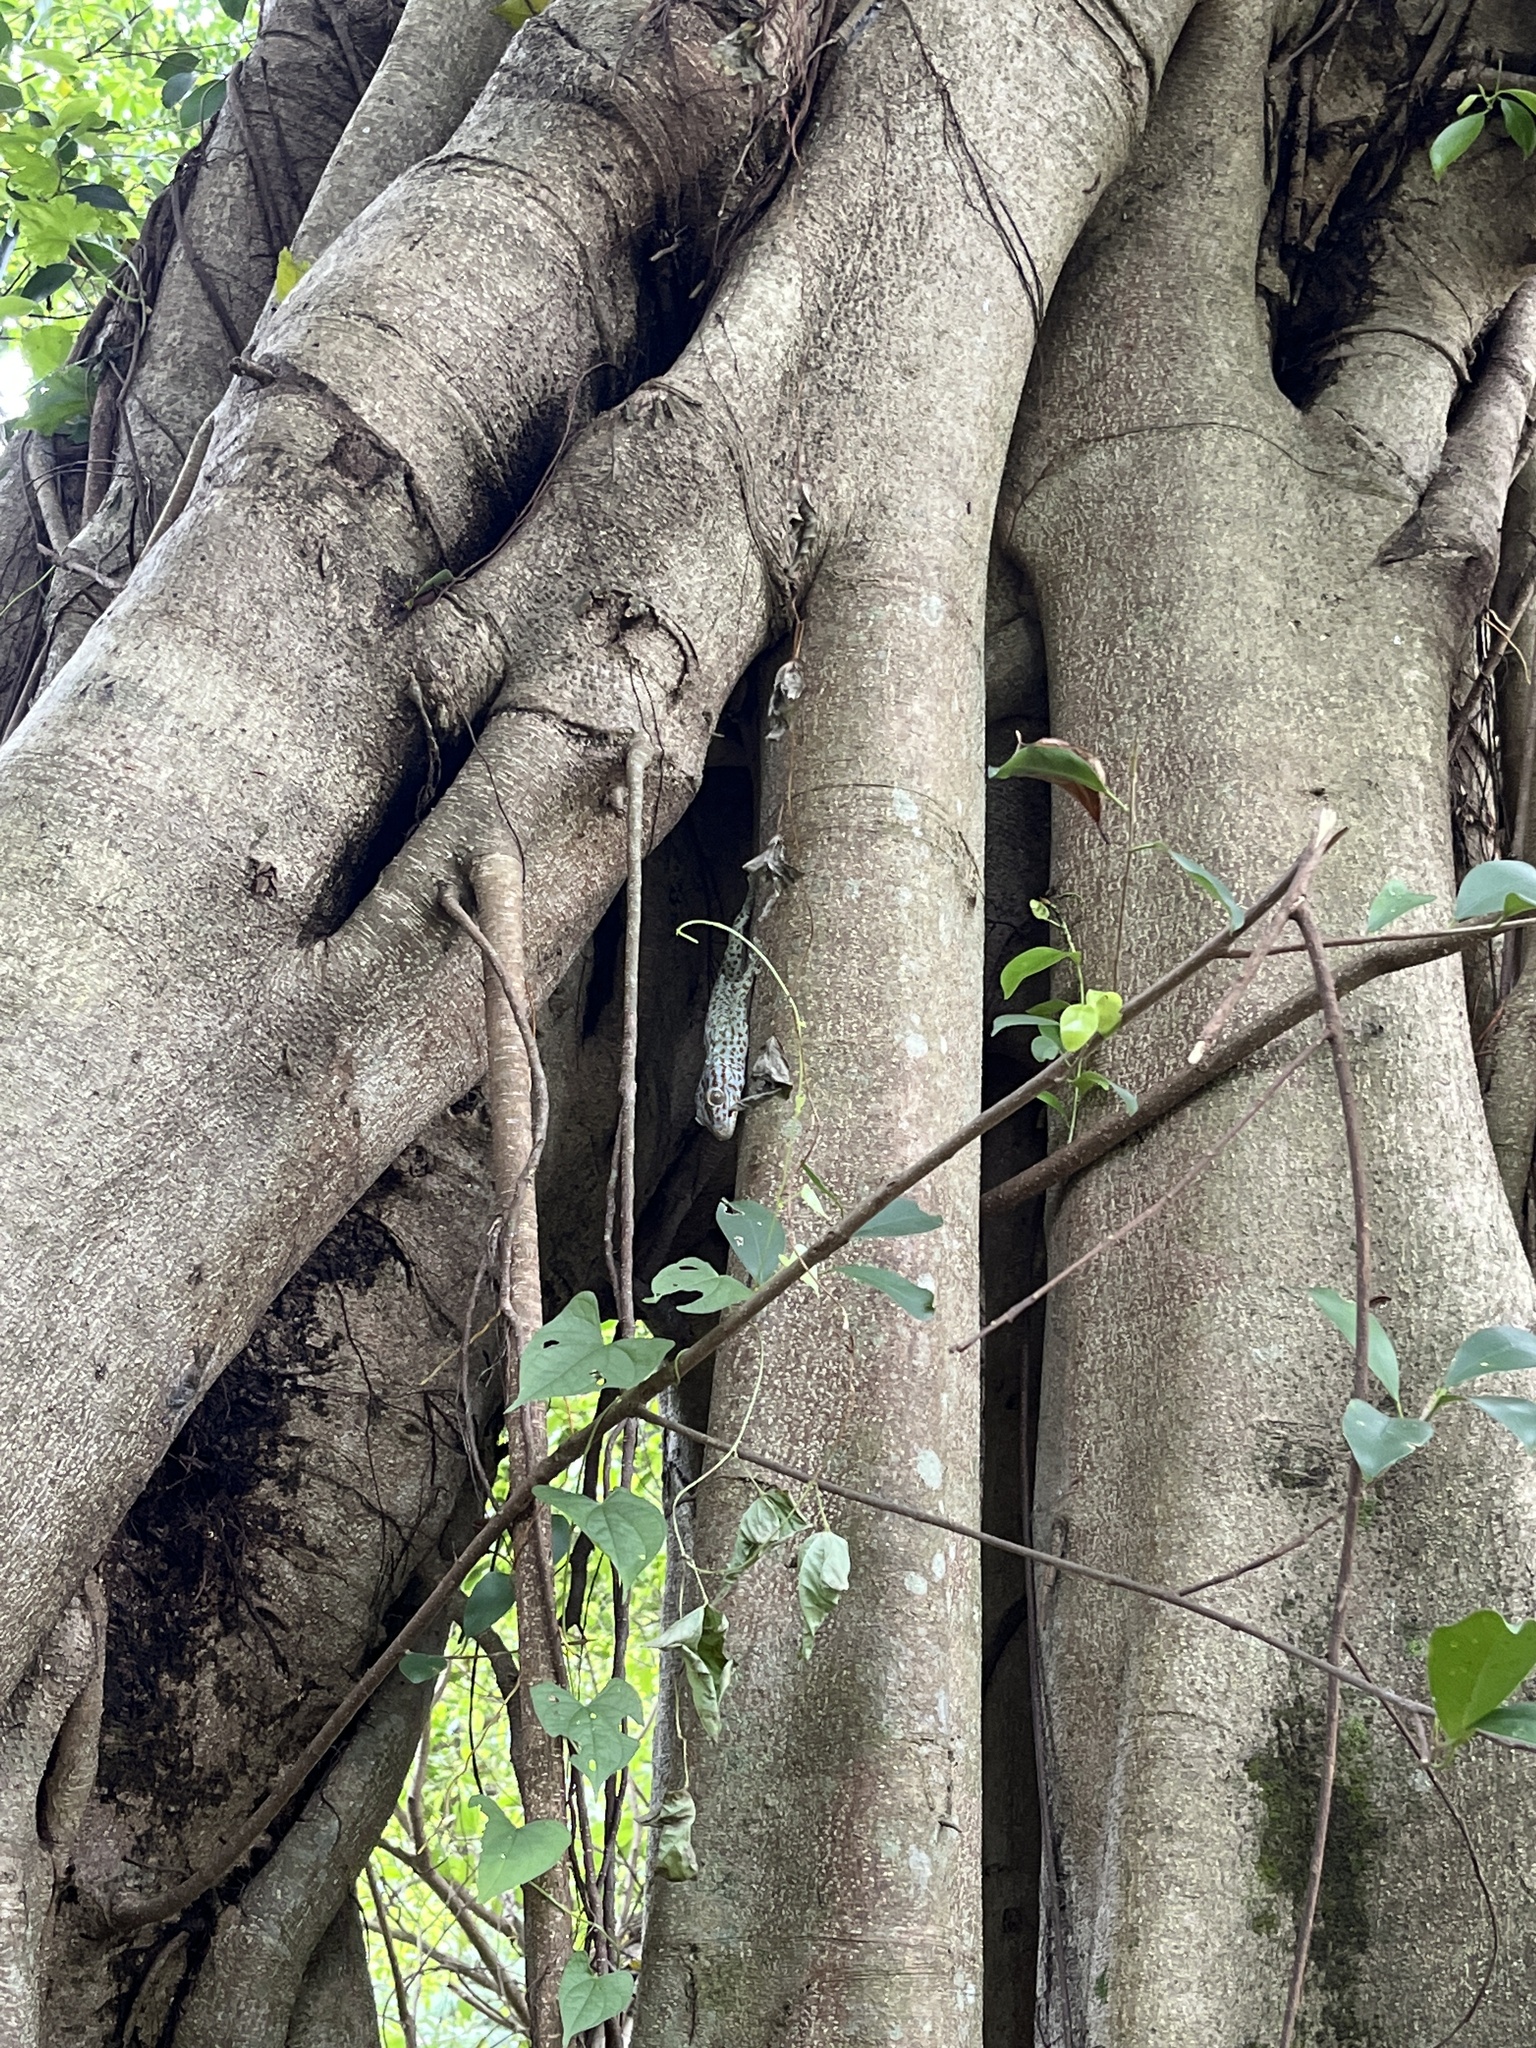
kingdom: Animalia
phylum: Chordata
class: Squamata
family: Gekkonidae
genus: Gekko
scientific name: Gekko gecko
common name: Tokay gecko
